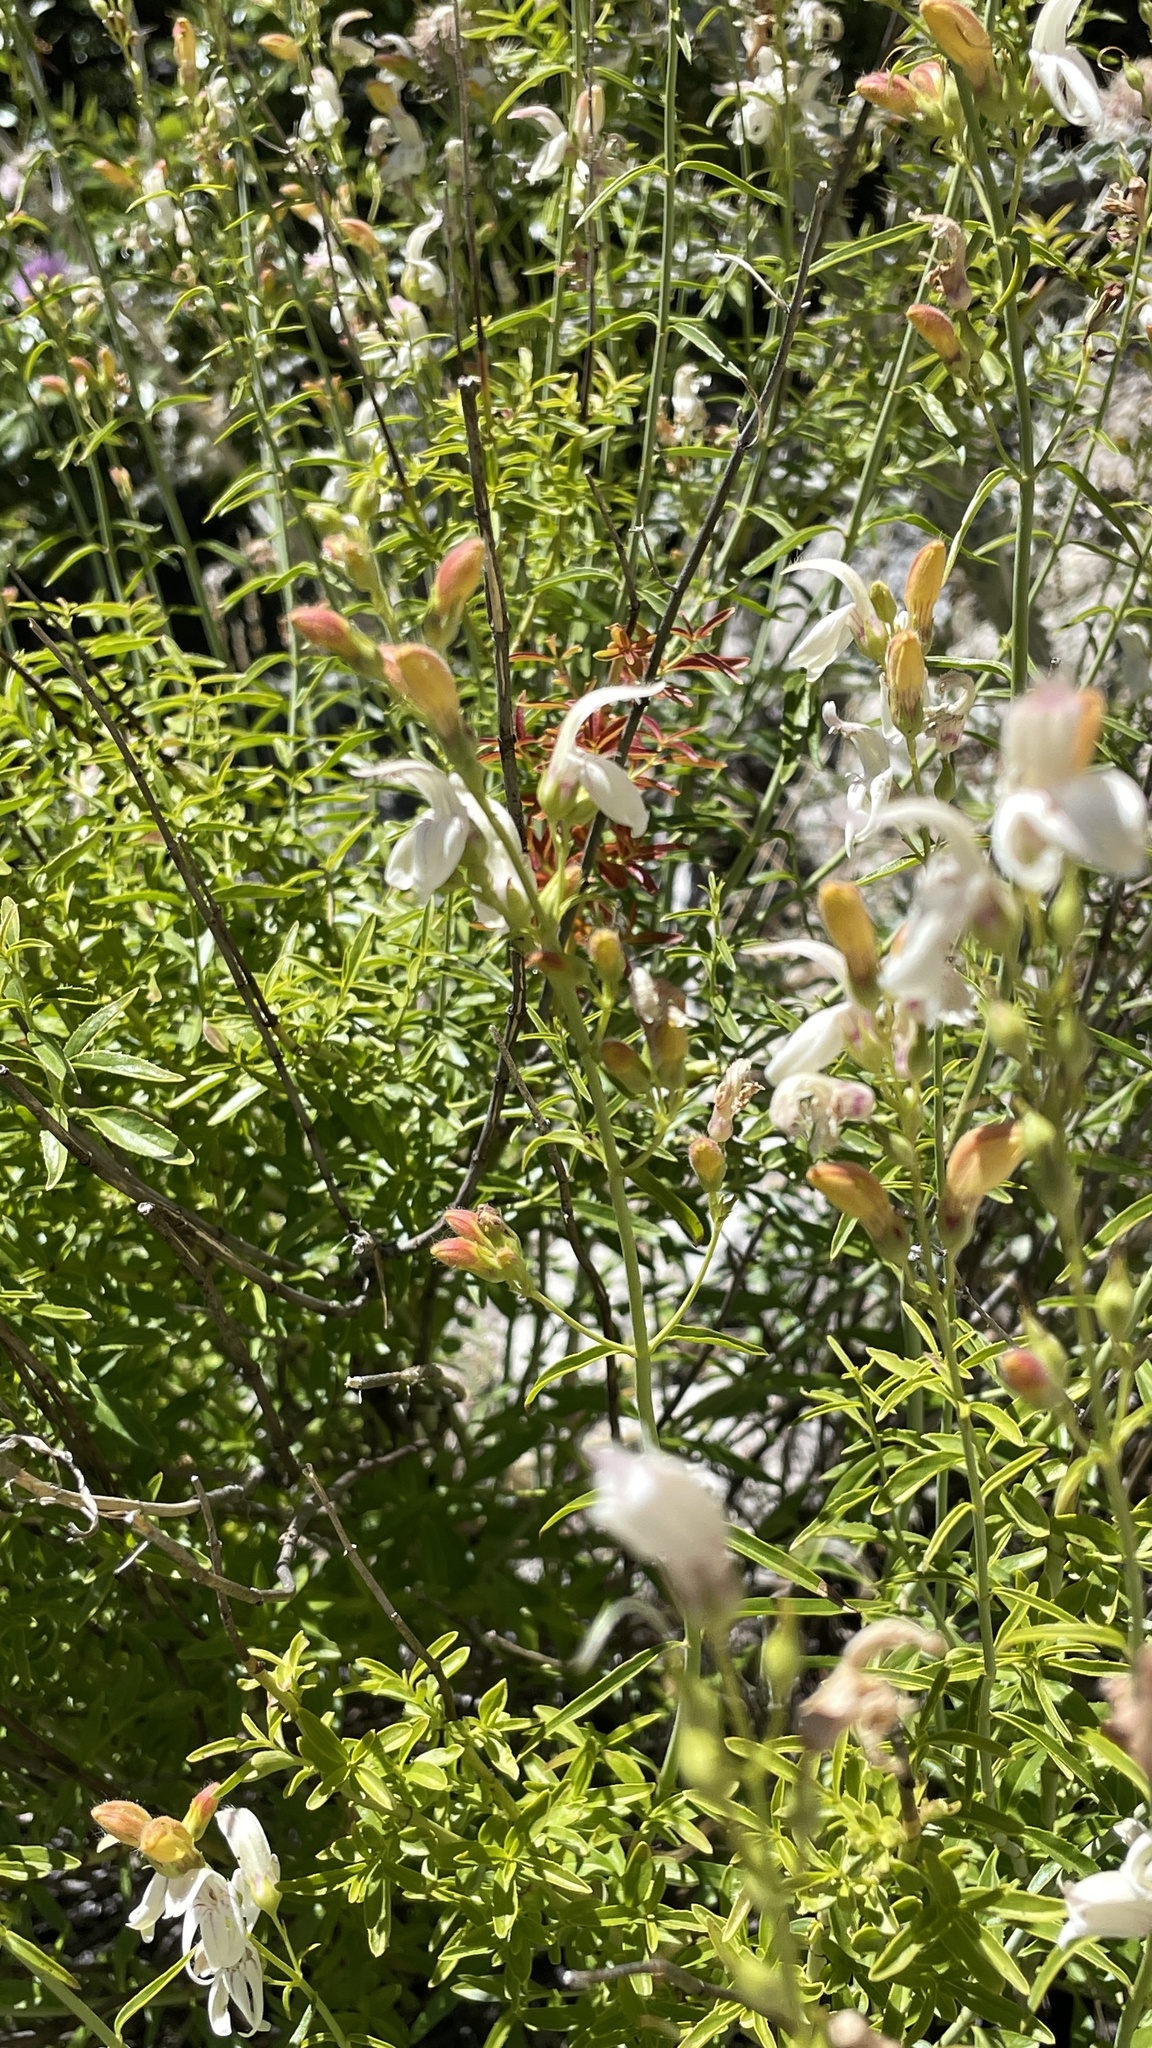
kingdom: Plantae
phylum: Tracheophyta
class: Magnoliopsida
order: Lamiales
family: Plantaginaceae
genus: Keckiella
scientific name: Keckiella breviflora
